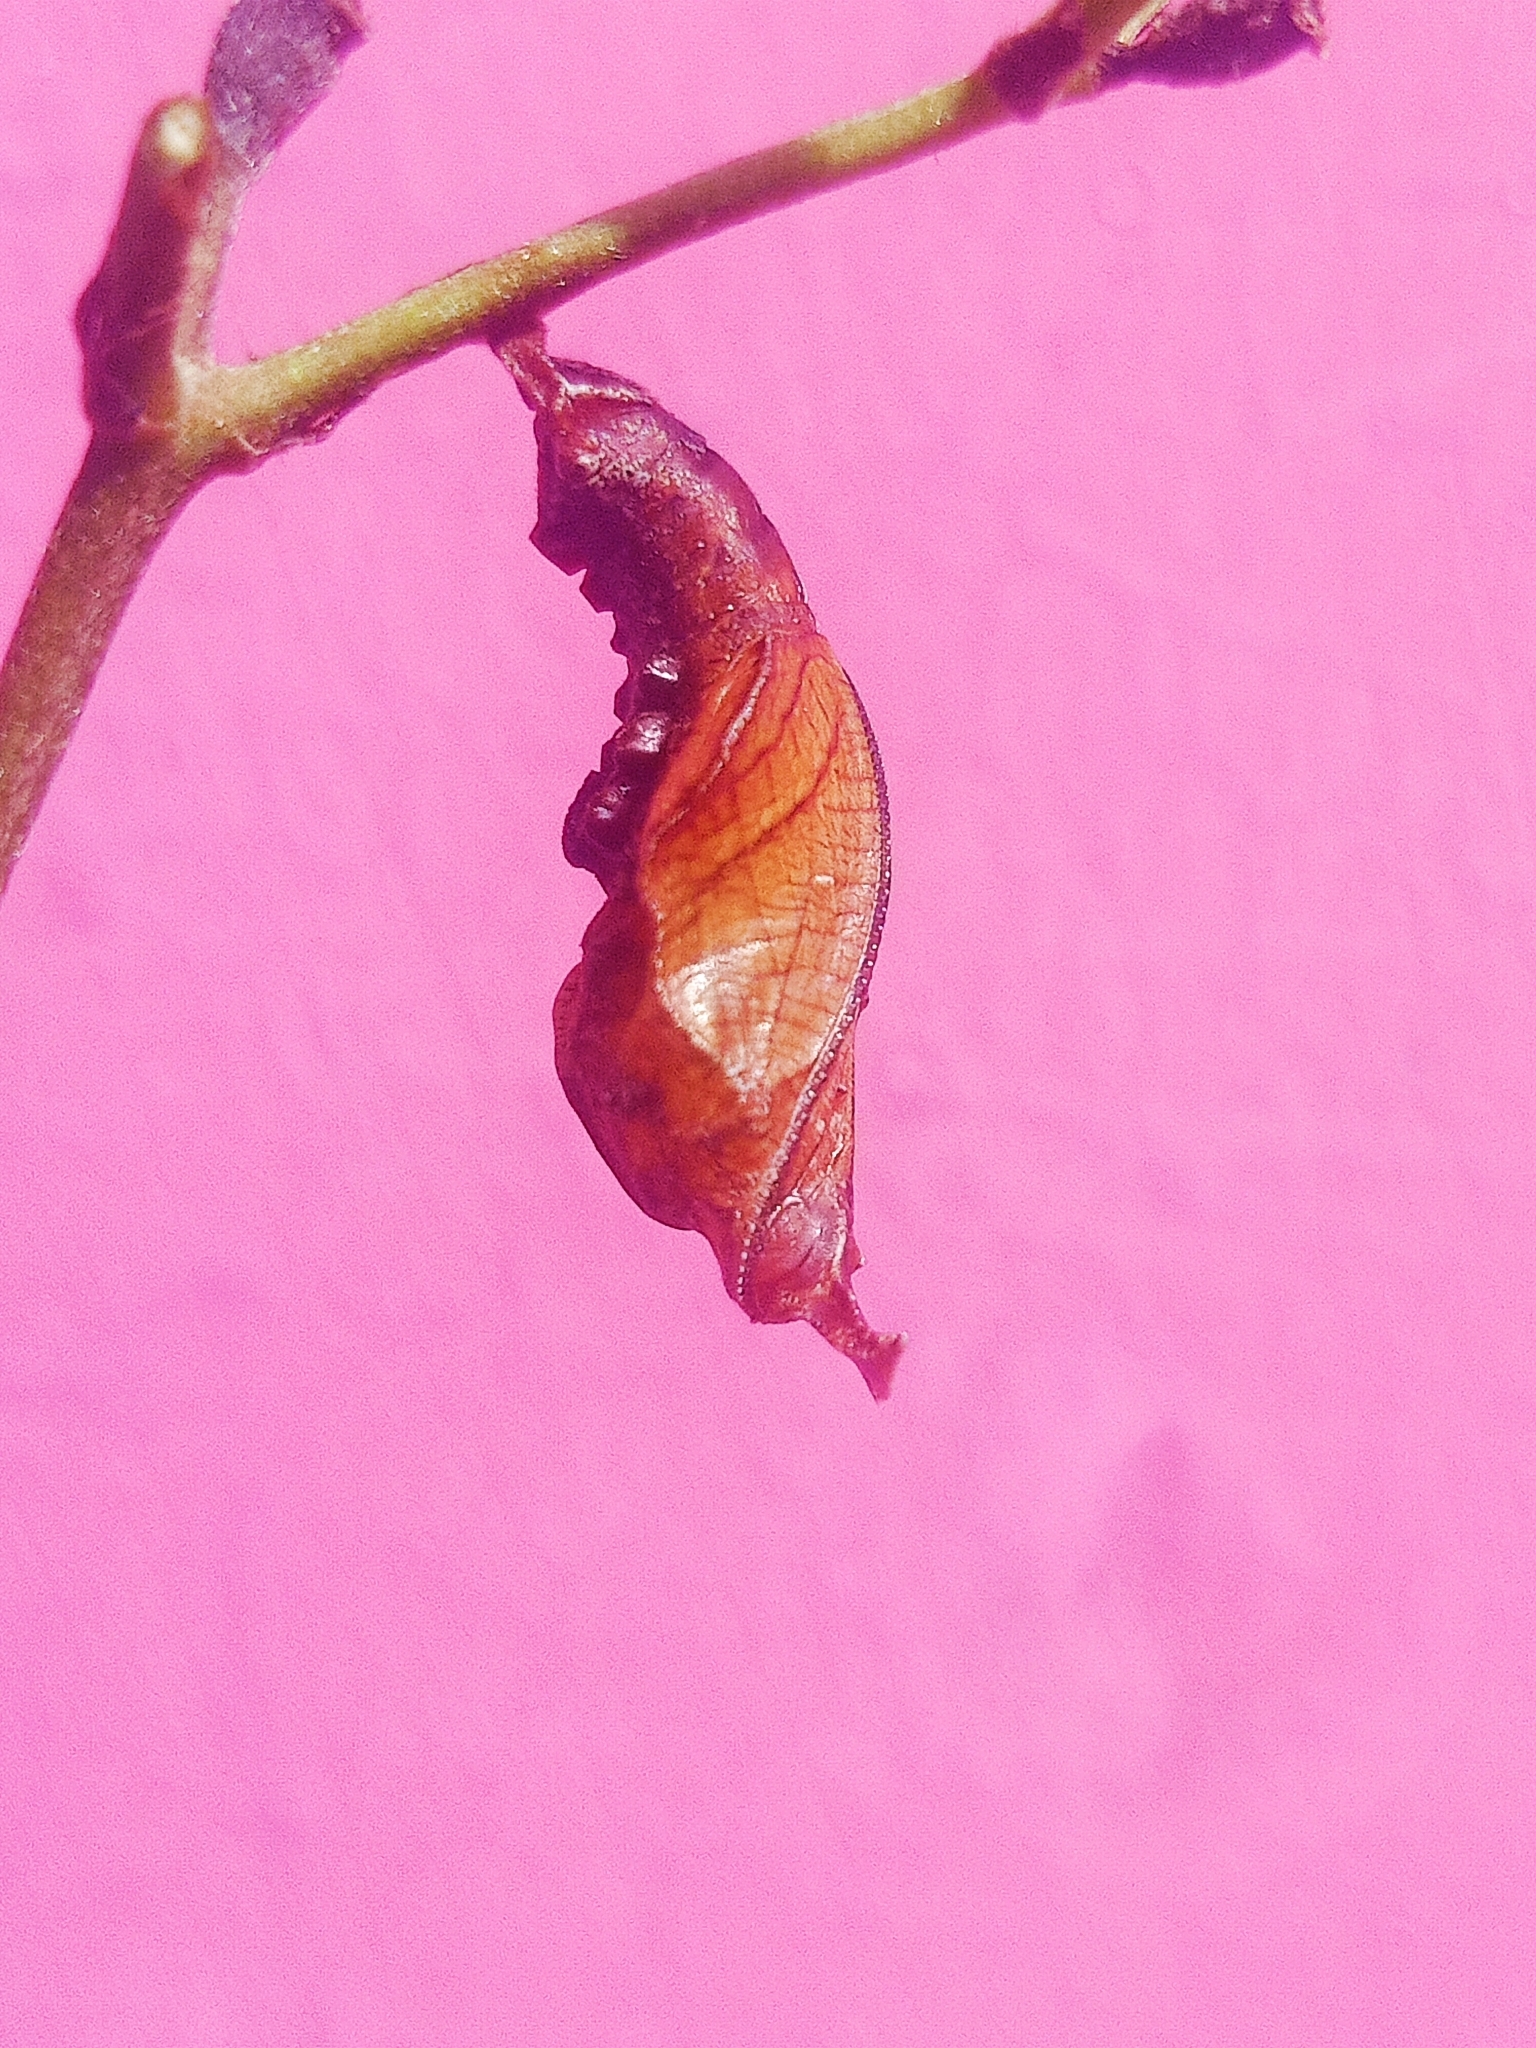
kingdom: Animalia
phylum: Arthropoda
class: Insecta
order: Lepidoptera
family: Nymphalidae
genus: Limenitis
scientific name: Limenitis Moduza procris
